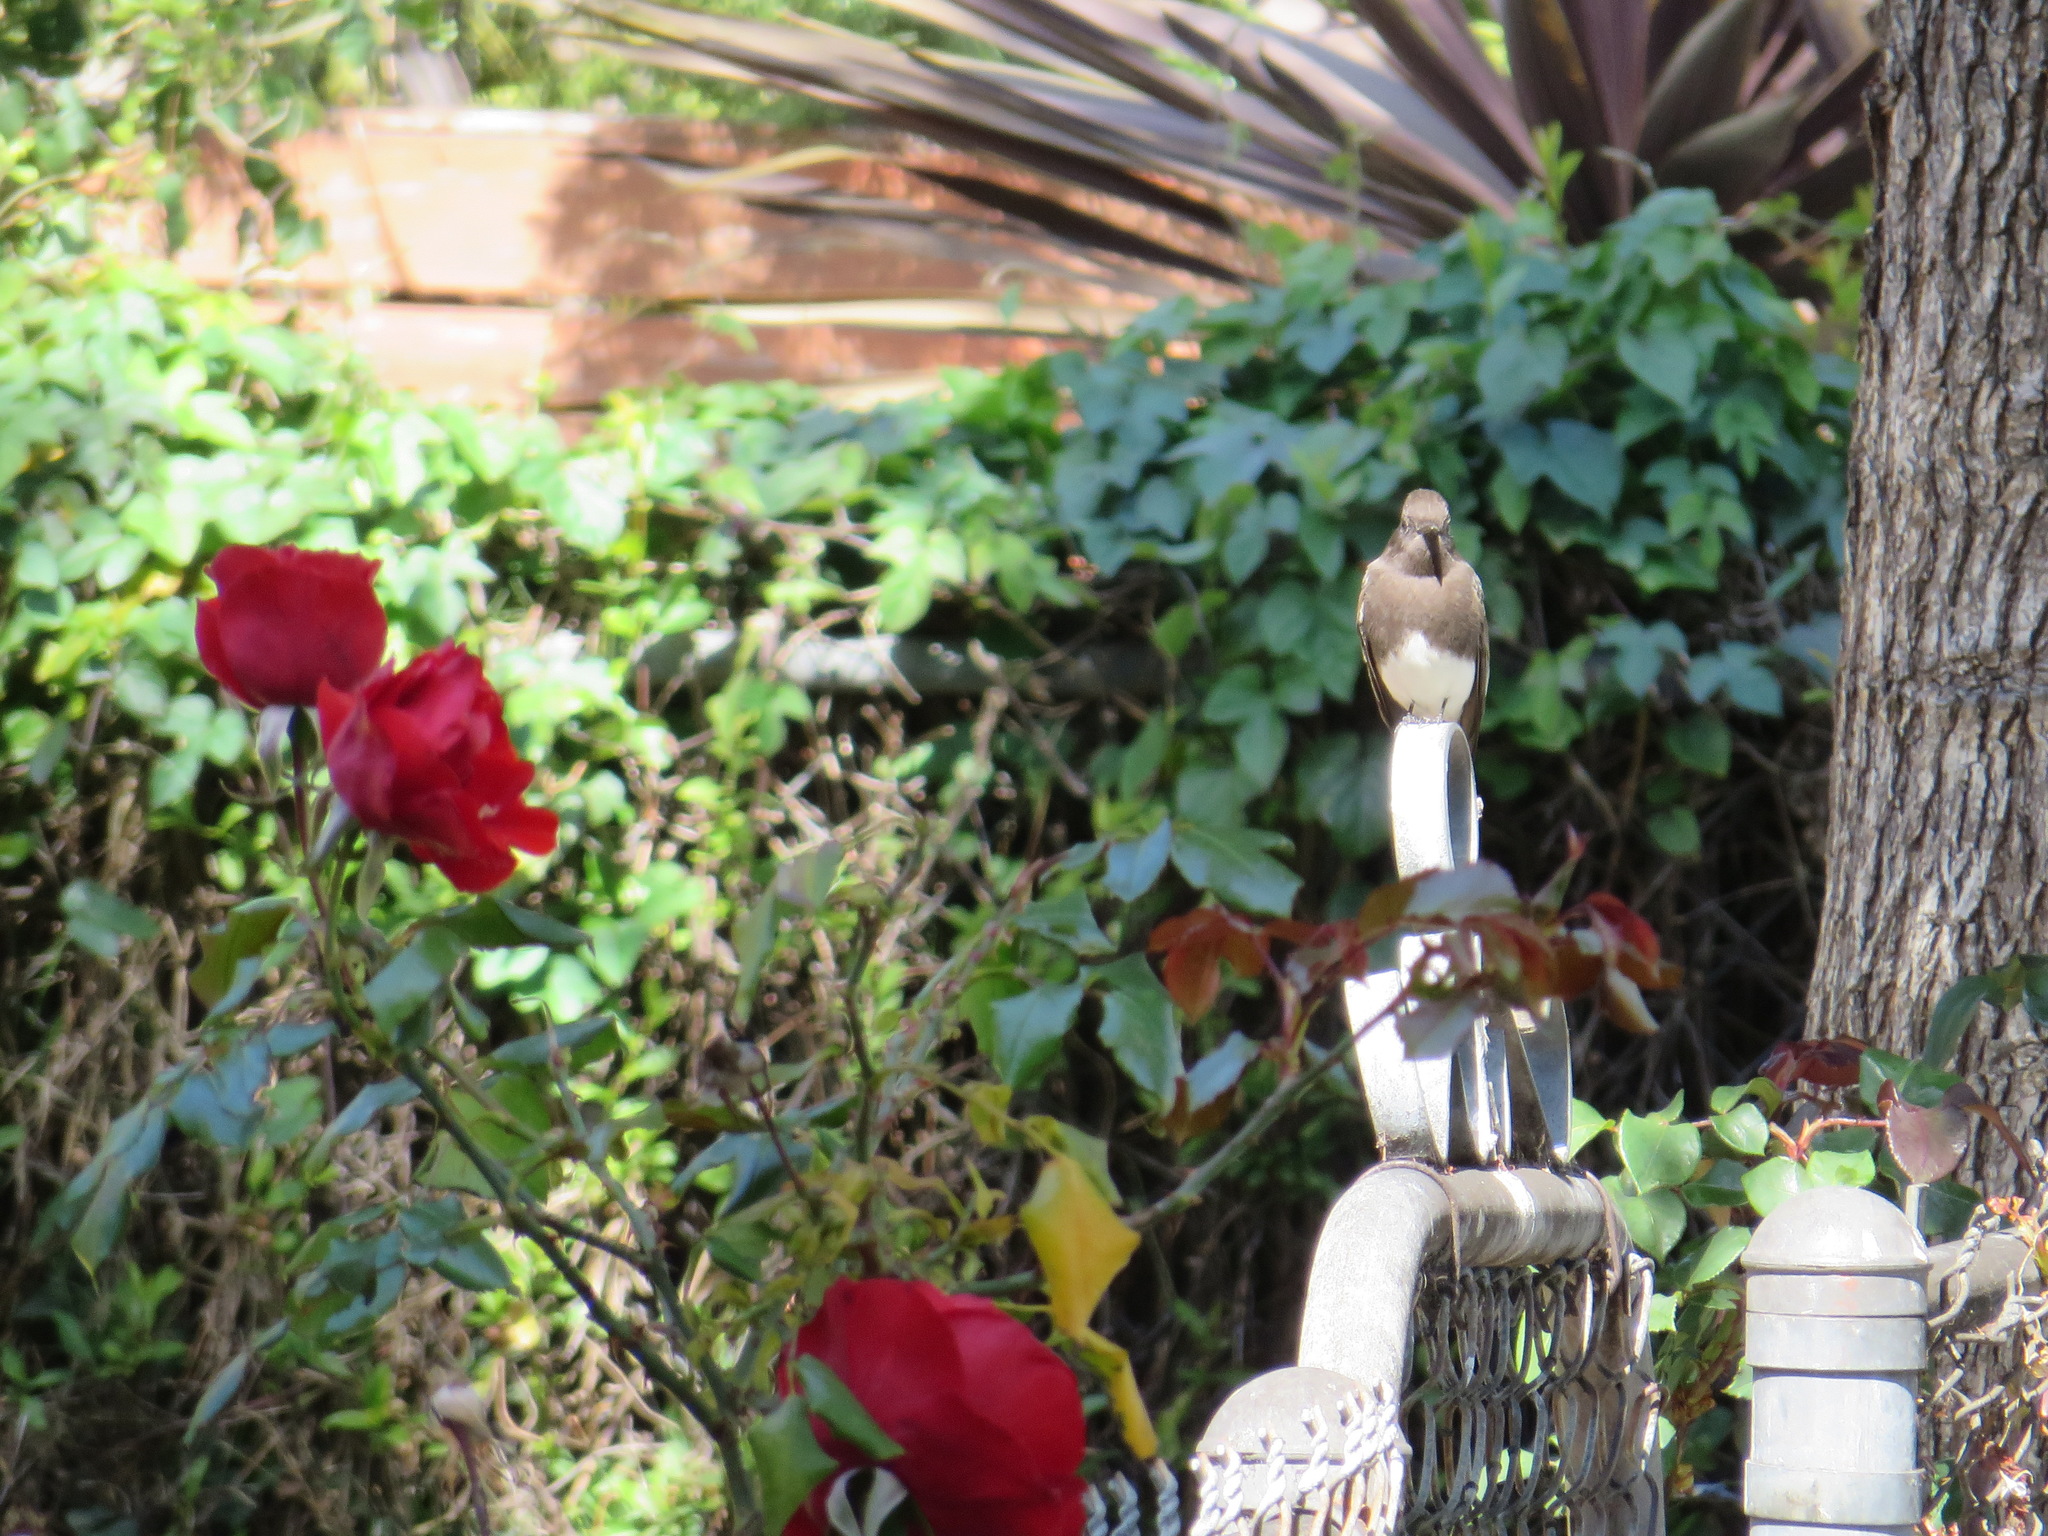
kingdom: Animalia
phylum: Chordata
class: Aves
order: Passeriformes
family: Tyrannidae
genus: Sayornis
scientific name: Sayornis nigricans
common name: Black phoebe
